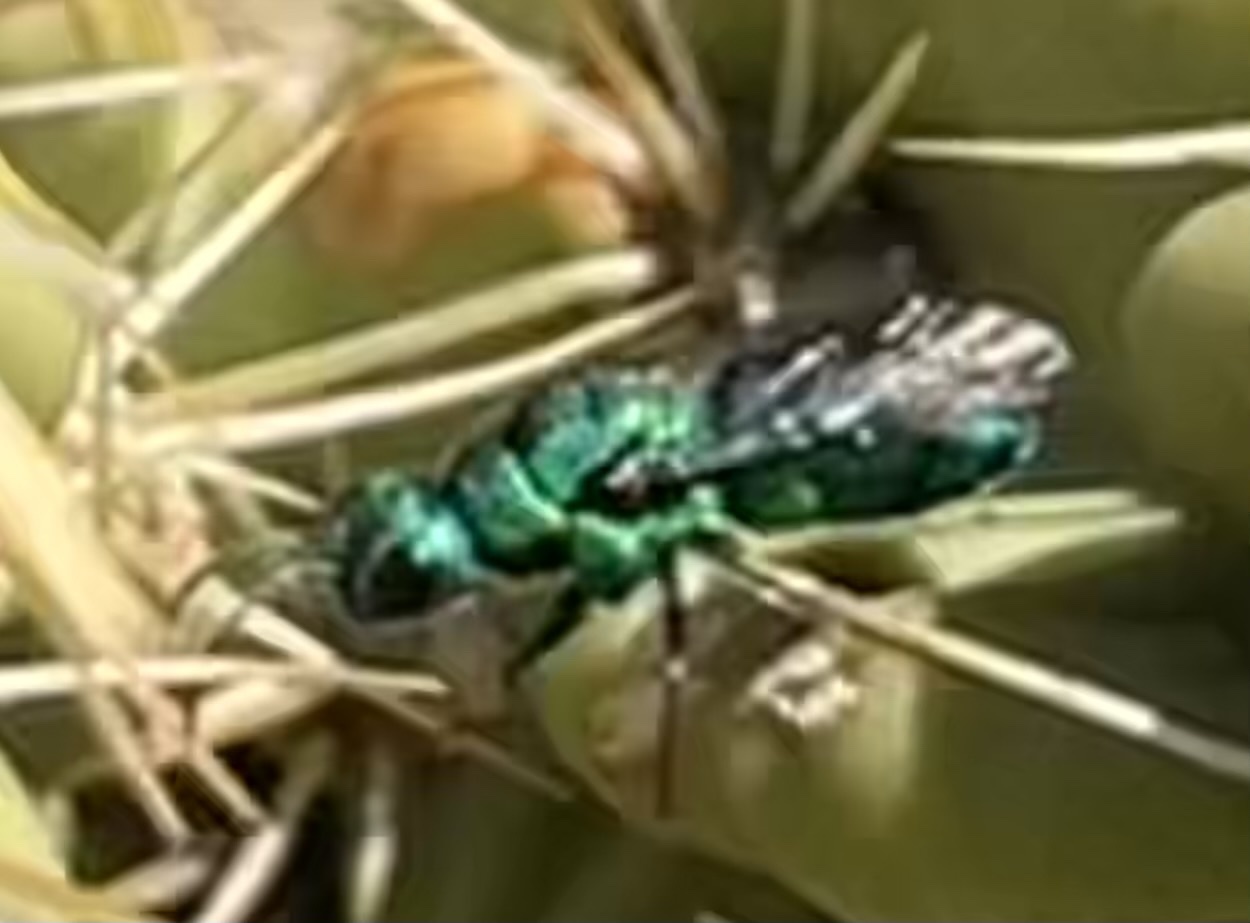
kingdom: Animalia
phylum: Arthropoda
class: Insecta
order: Hymenoptera
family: Chrysididae
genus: Holopyga
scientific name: Holopyga
